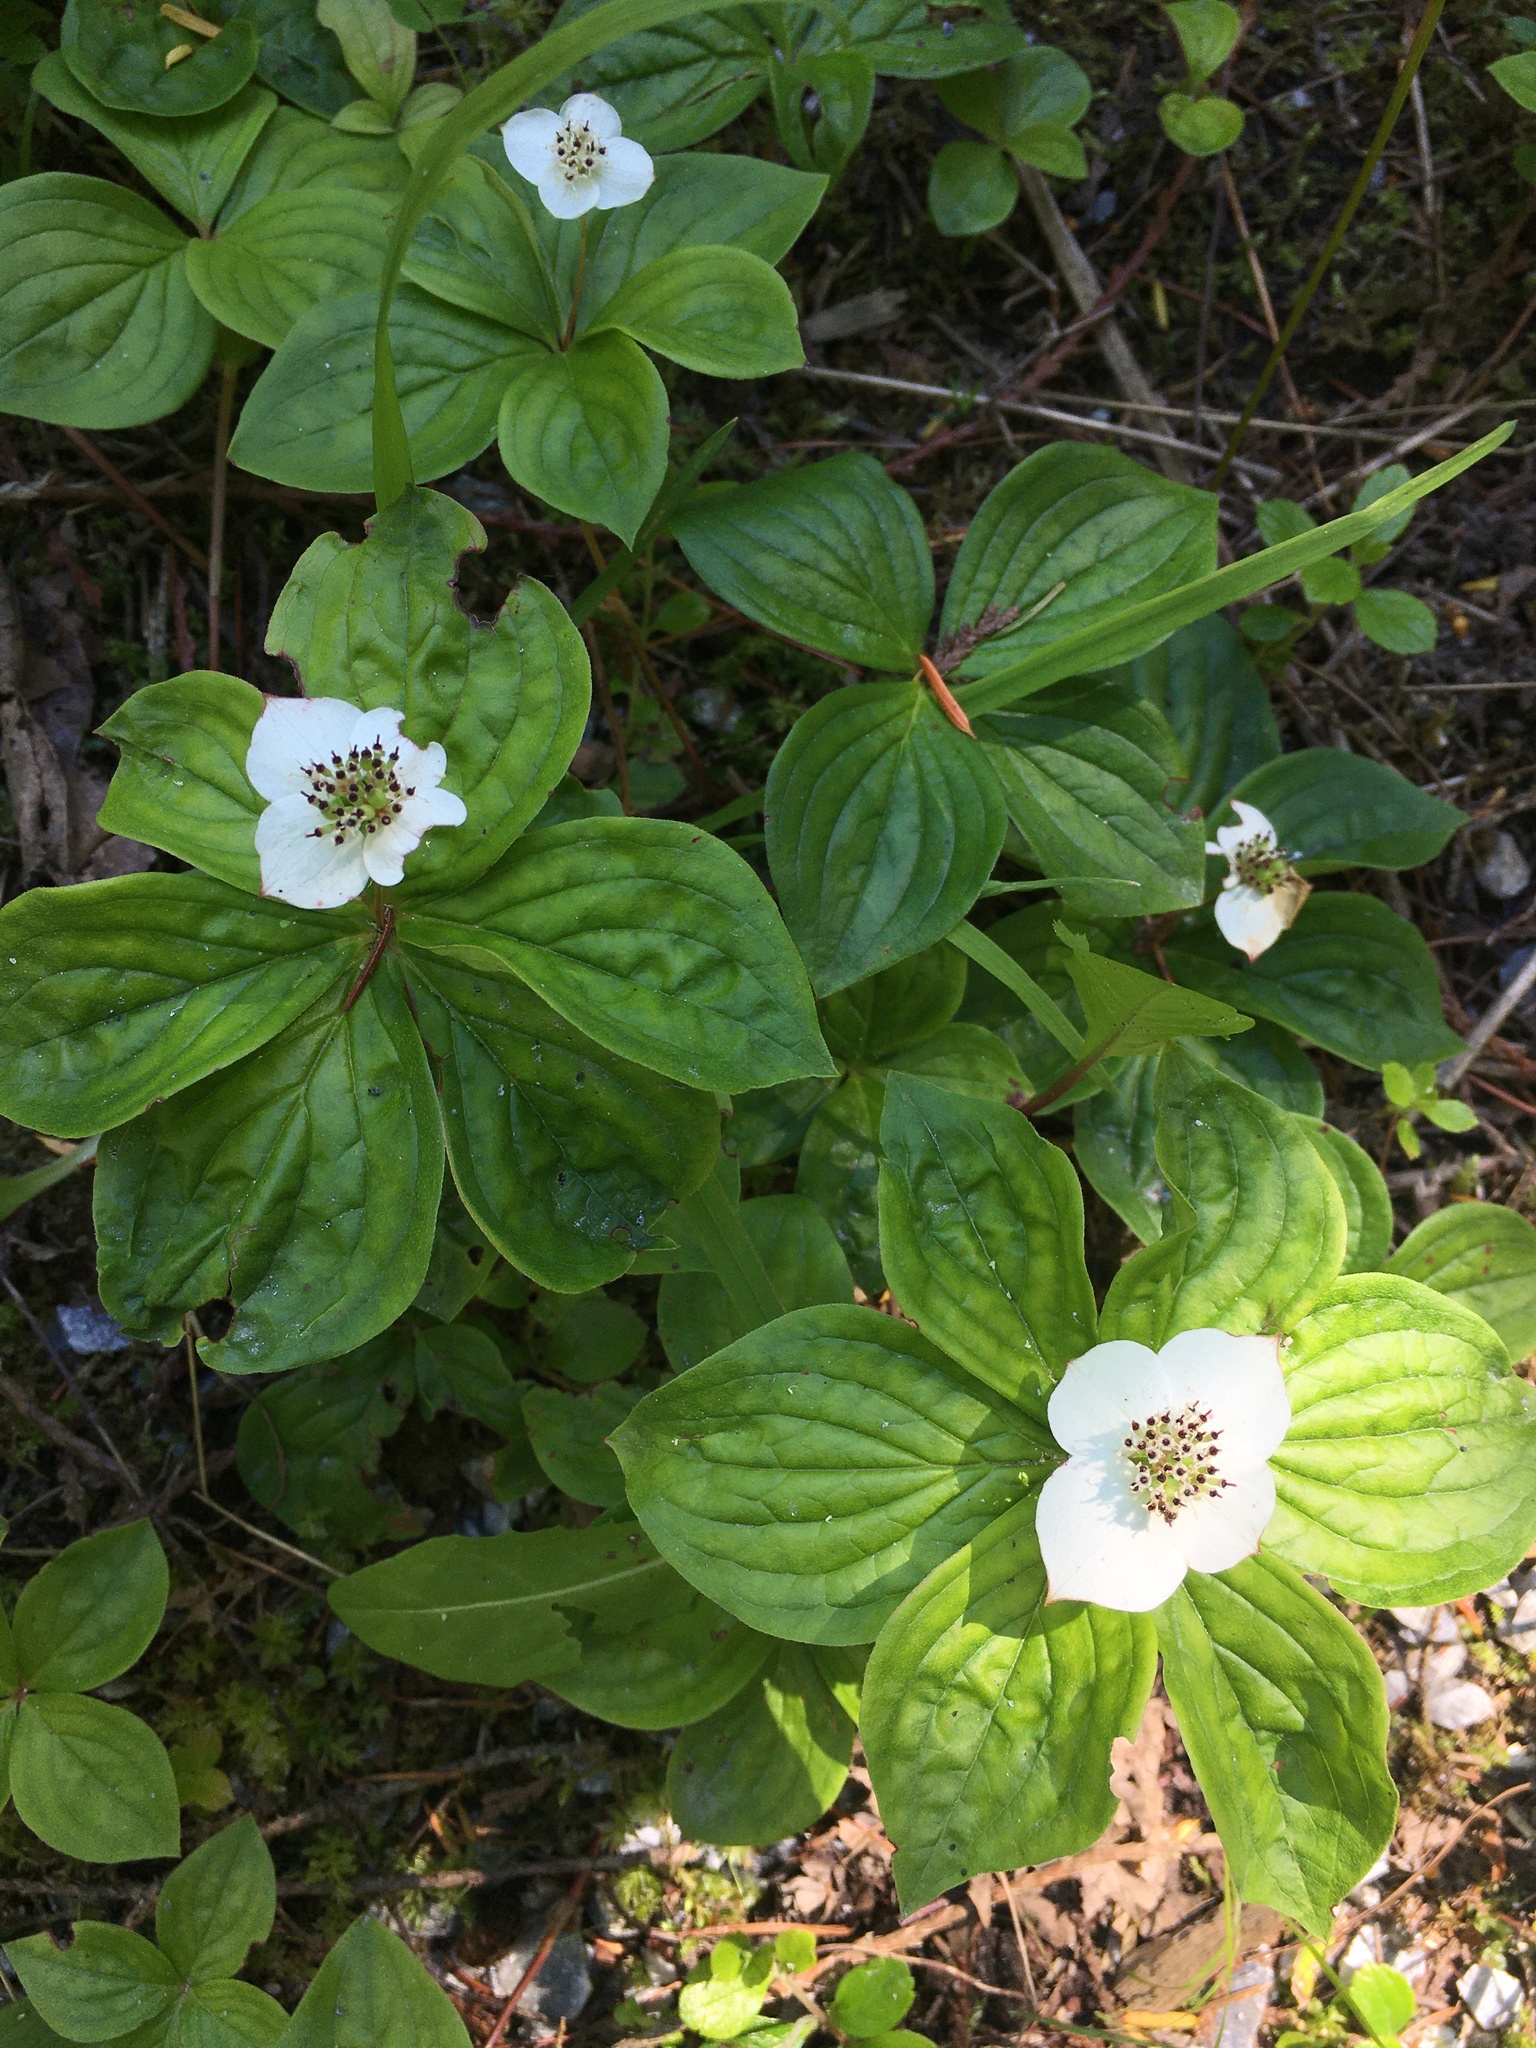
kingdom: Plantae
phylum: Tracheophyta
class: Magnoliopsida
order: Cornales
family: Cornaceae
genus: Cornus
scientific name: Cornus canadensis
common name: Creeping dogwood
